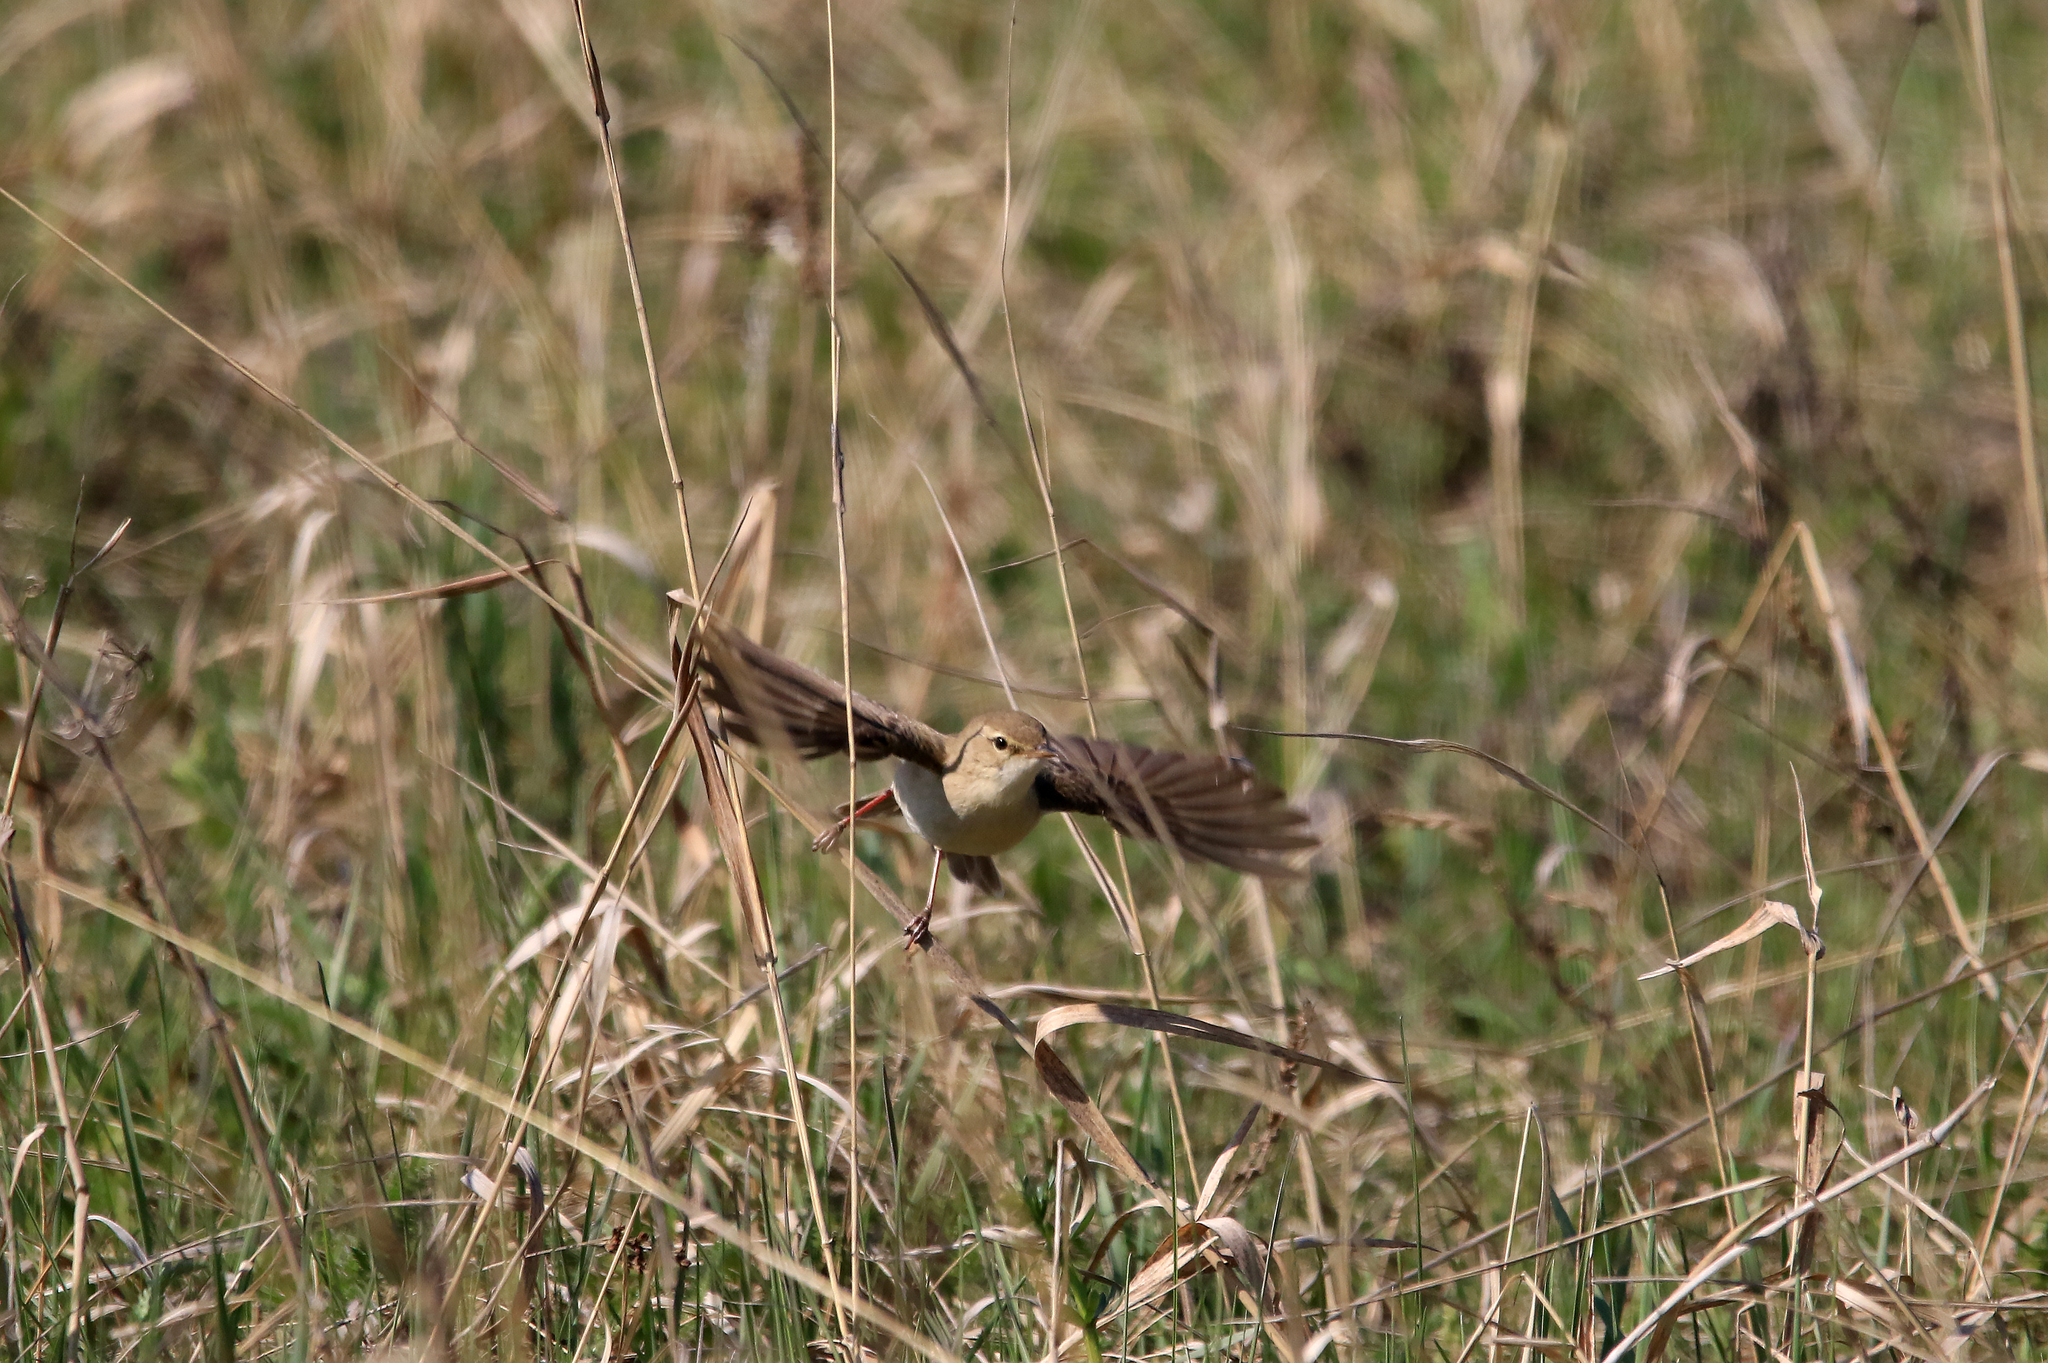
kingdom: Animalia
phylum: Chordata
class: Aves
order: Passeriformes
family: Acrocephalidae
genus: Iduna
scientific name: Iduna caligata
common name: Booted warbler
